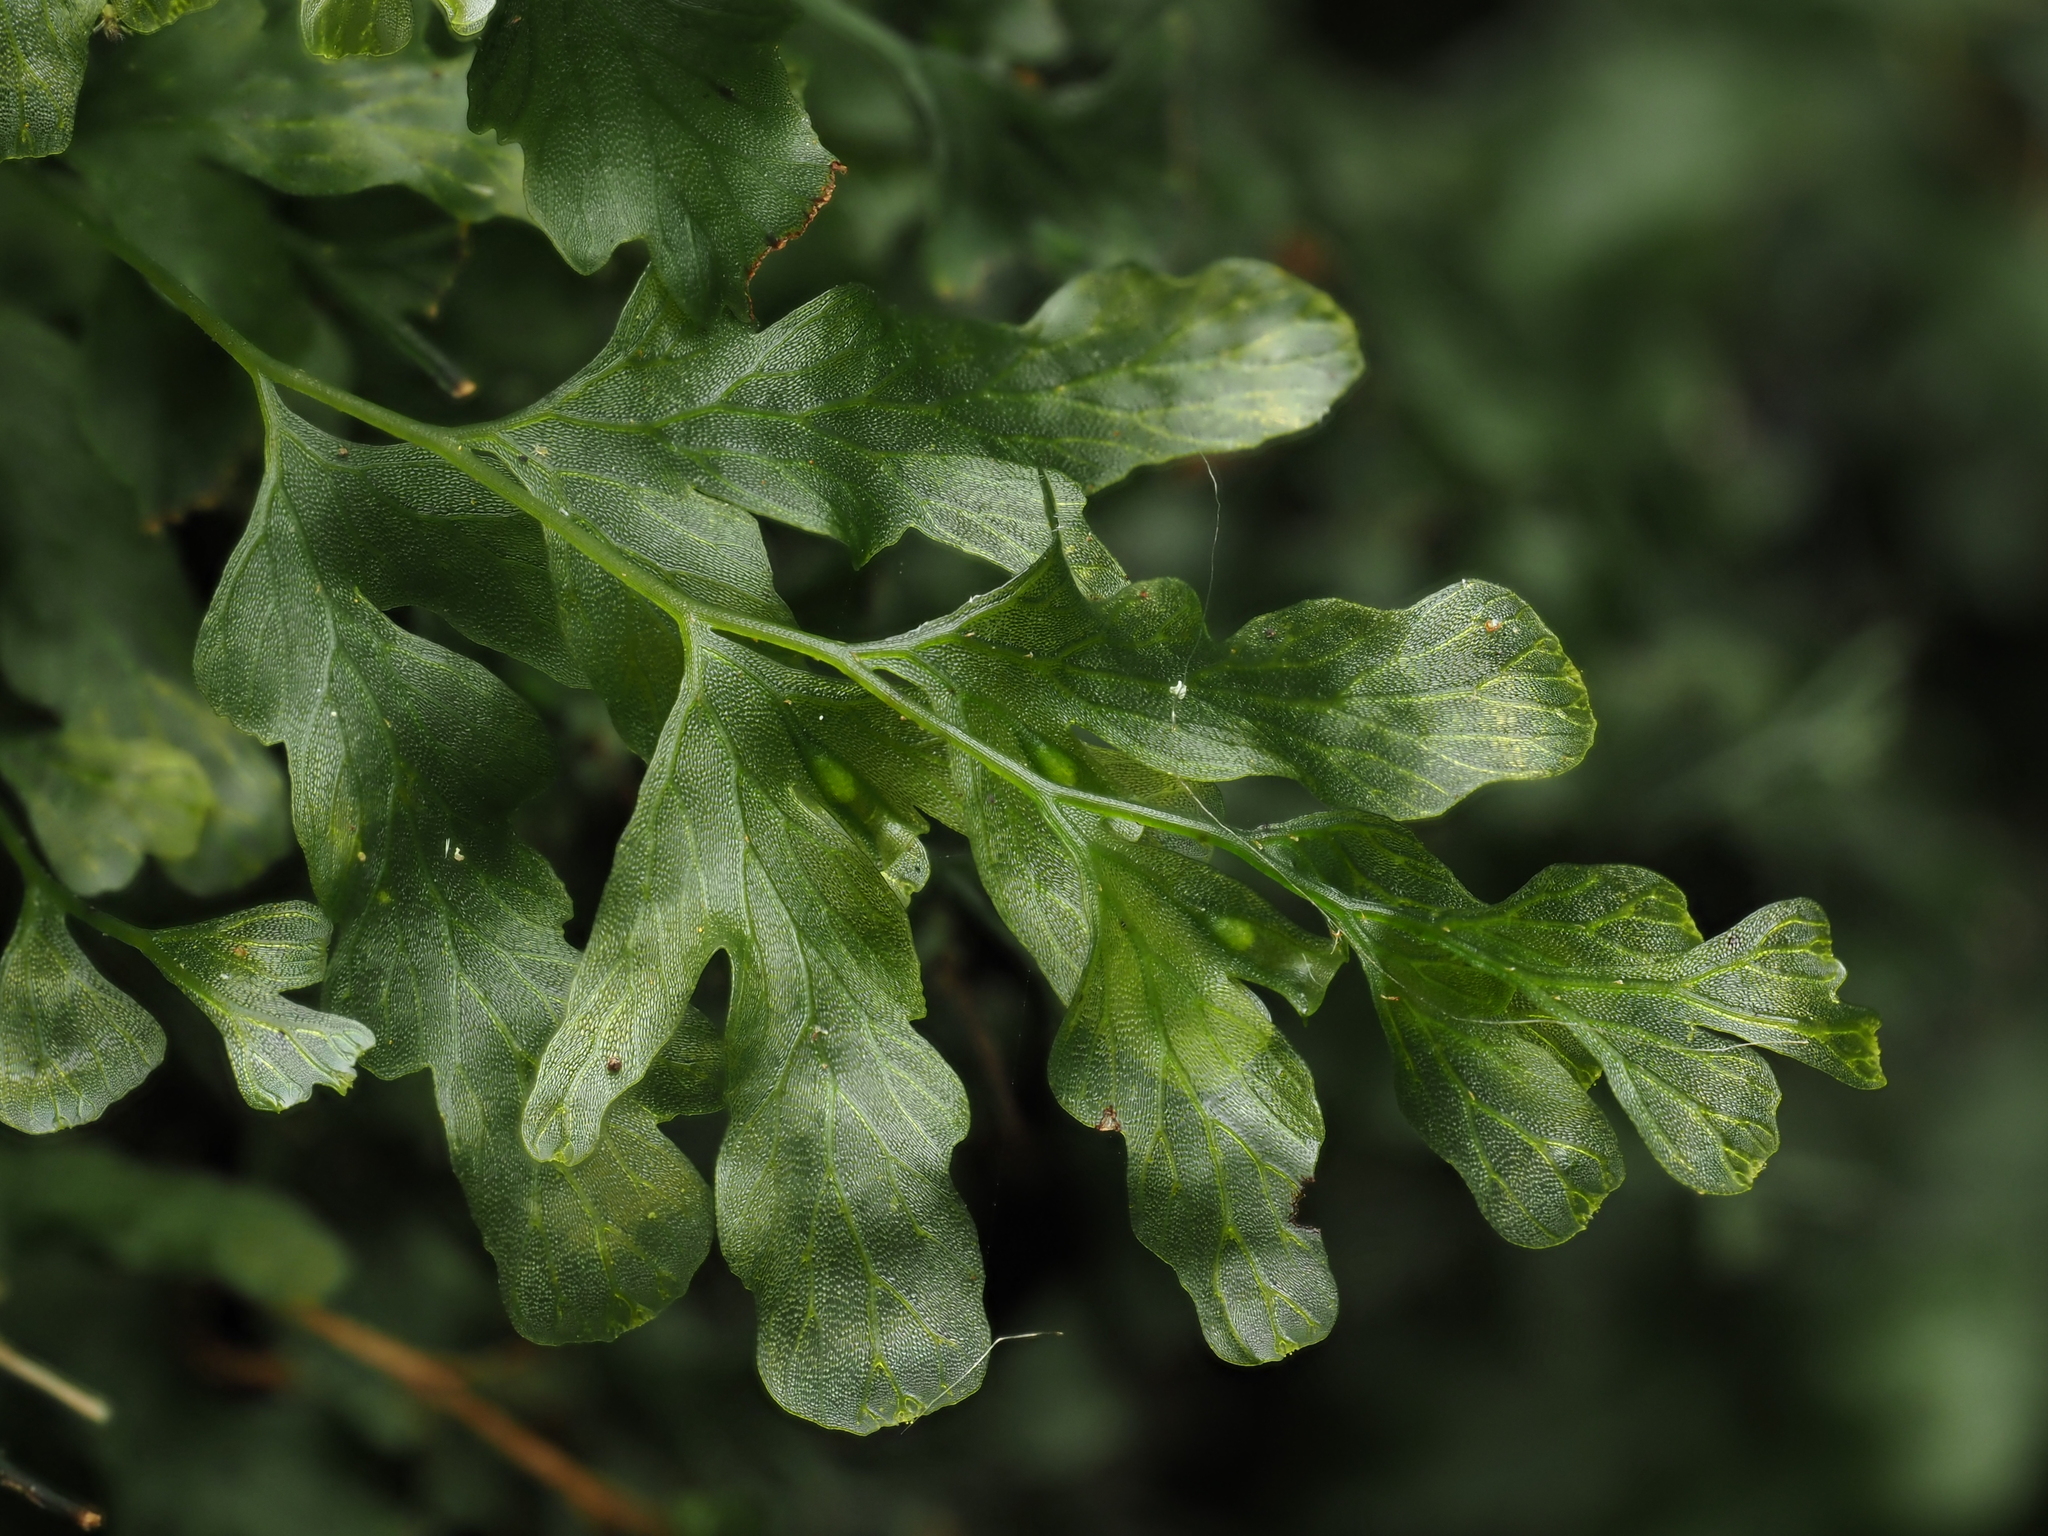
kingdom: Plantae
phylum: Tracheophyta
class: Polypodiopsida
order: Hymenophyllales
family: Hymenophyllaceae
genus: Polyphlebium
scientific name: Polyphlebium venosum
